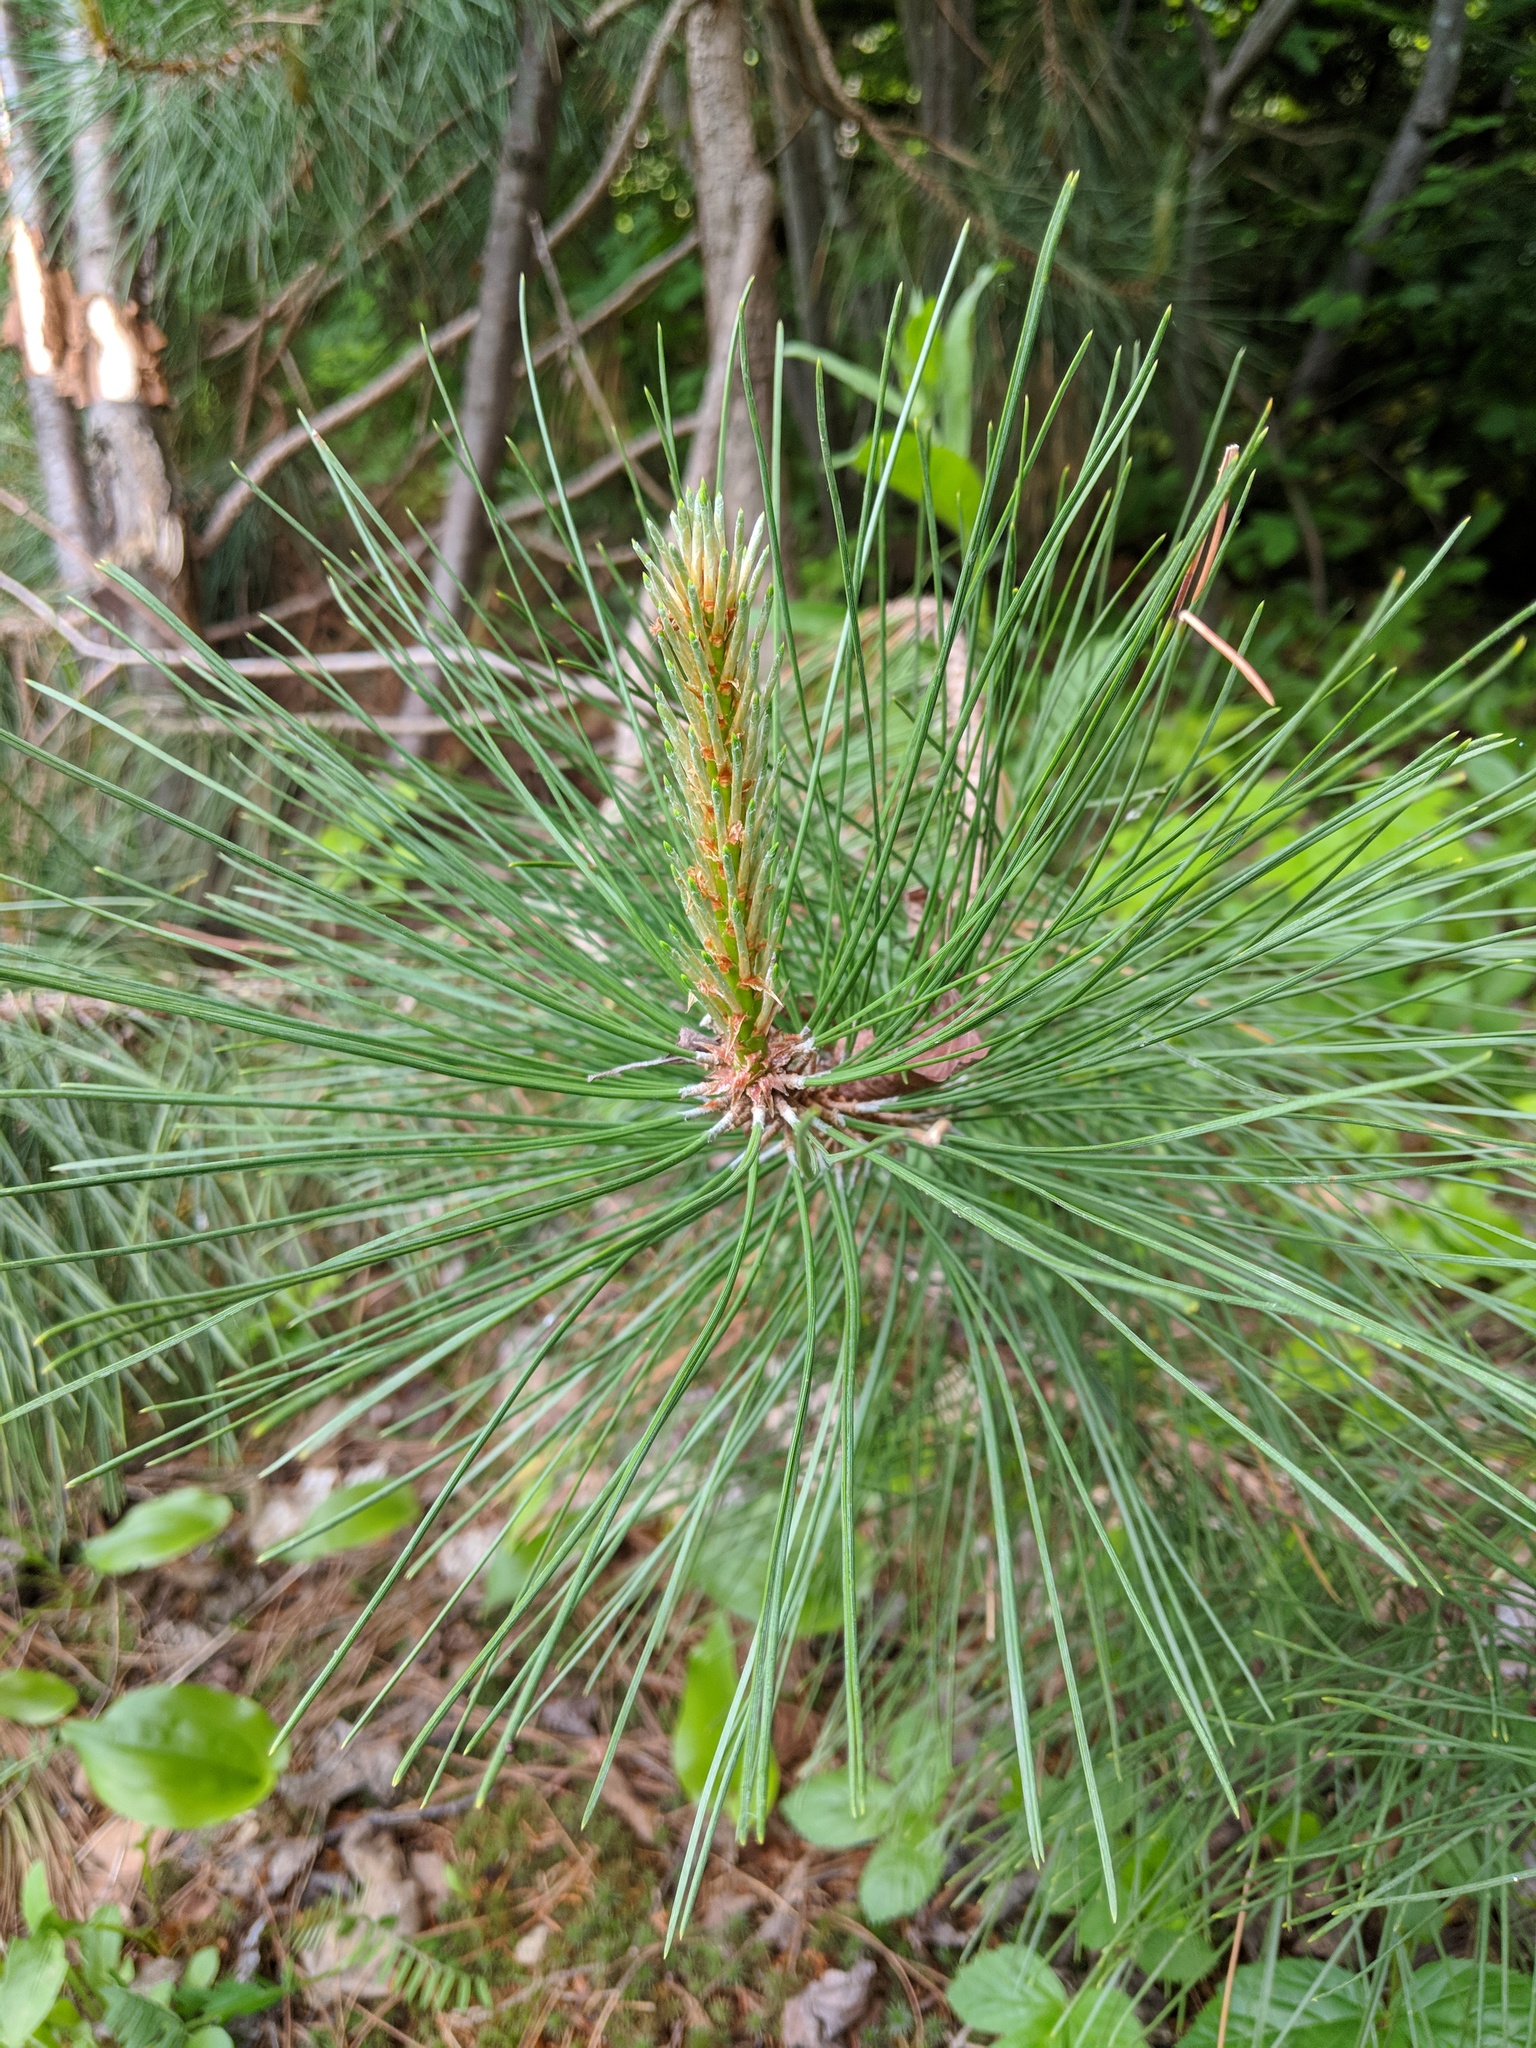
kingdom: Plantae
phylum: Tracheophyta
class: Pinopsida
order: Pinales
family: Pinaceae
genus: Pinus
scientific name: Pinus resinosa
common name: Norway pine
